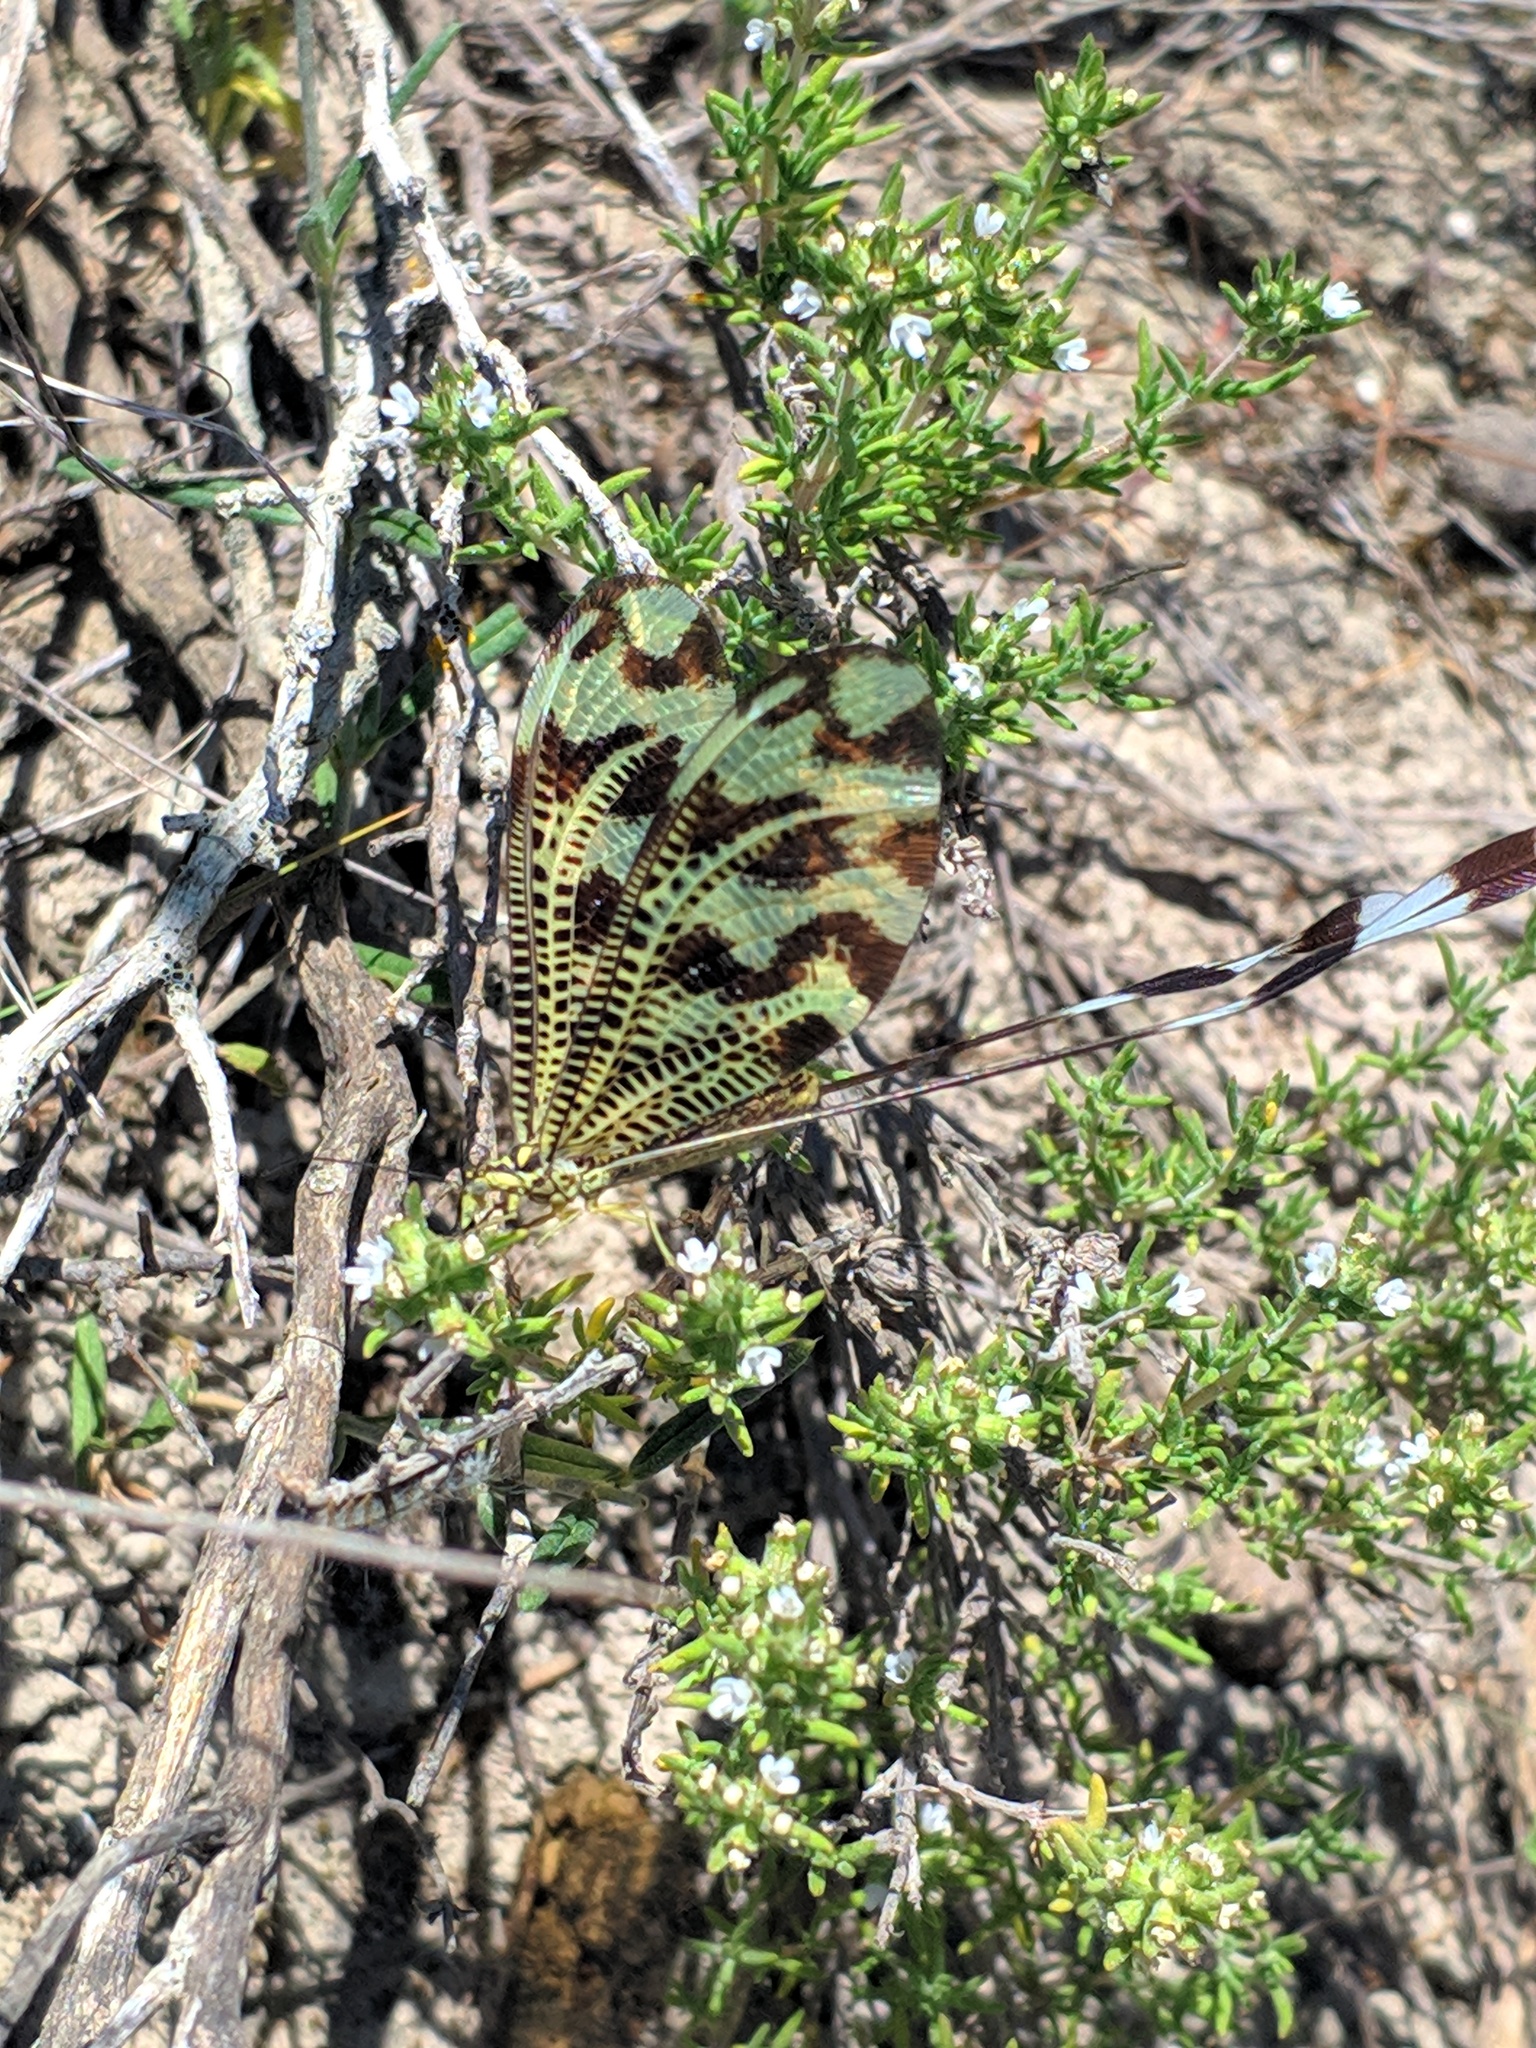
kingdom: Animalia
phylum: Arthropoda
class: Insecta
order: Neuroptera
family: Nemopteridae
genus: Nemoptera
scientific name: Nemoptera bipennis
